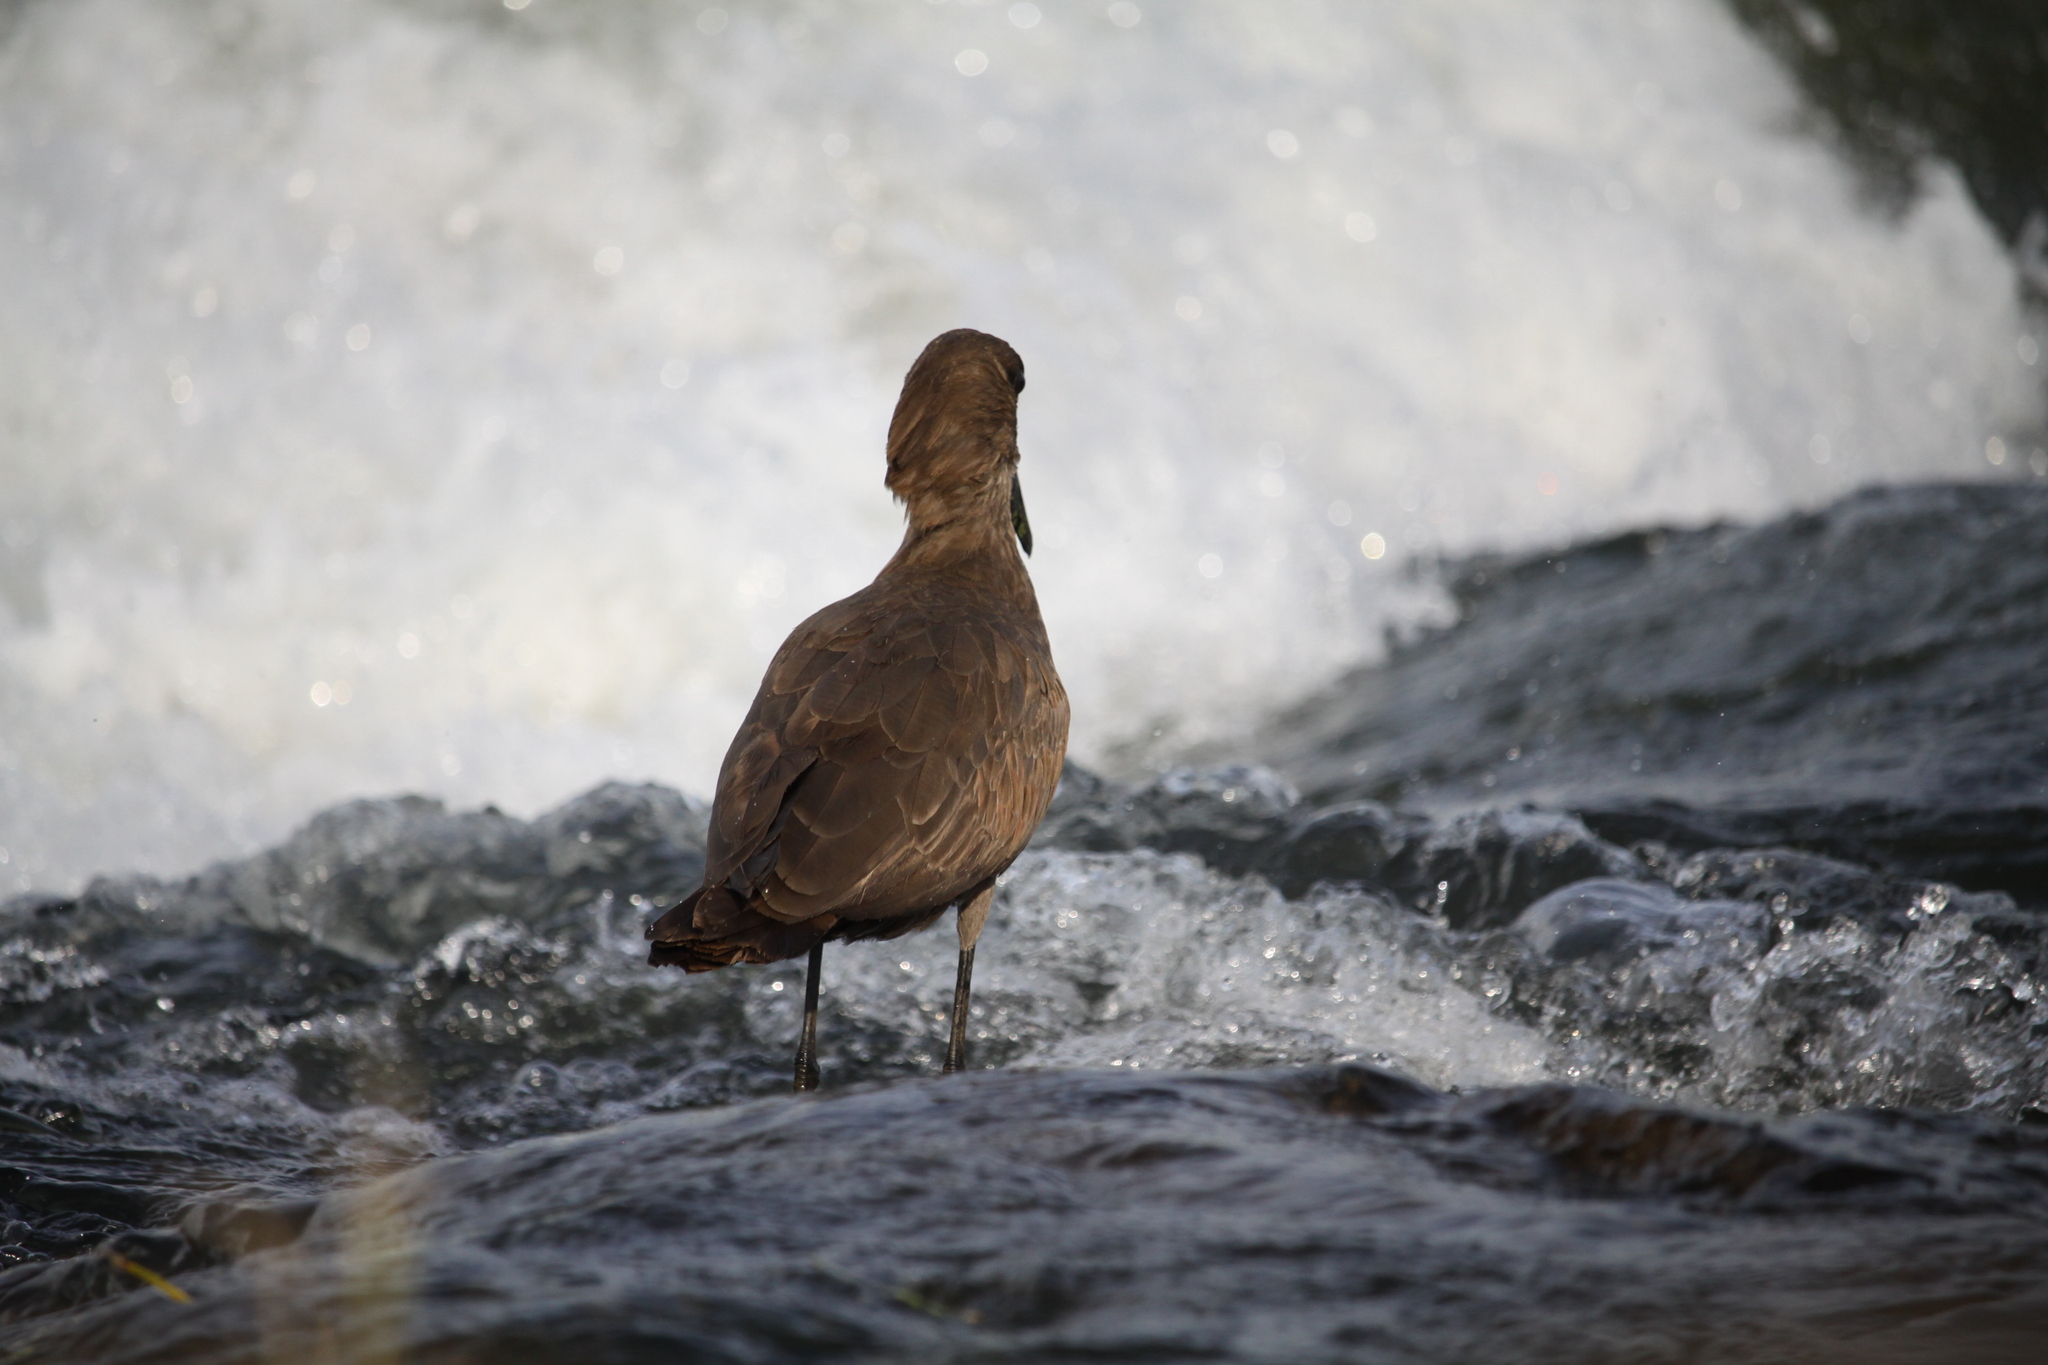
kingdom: Animalia
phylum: Chordata
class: Aves
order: Pelecaniformes
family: Scopidae
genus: Scopus
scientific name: Scopus umbretta
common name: Hamerkop
